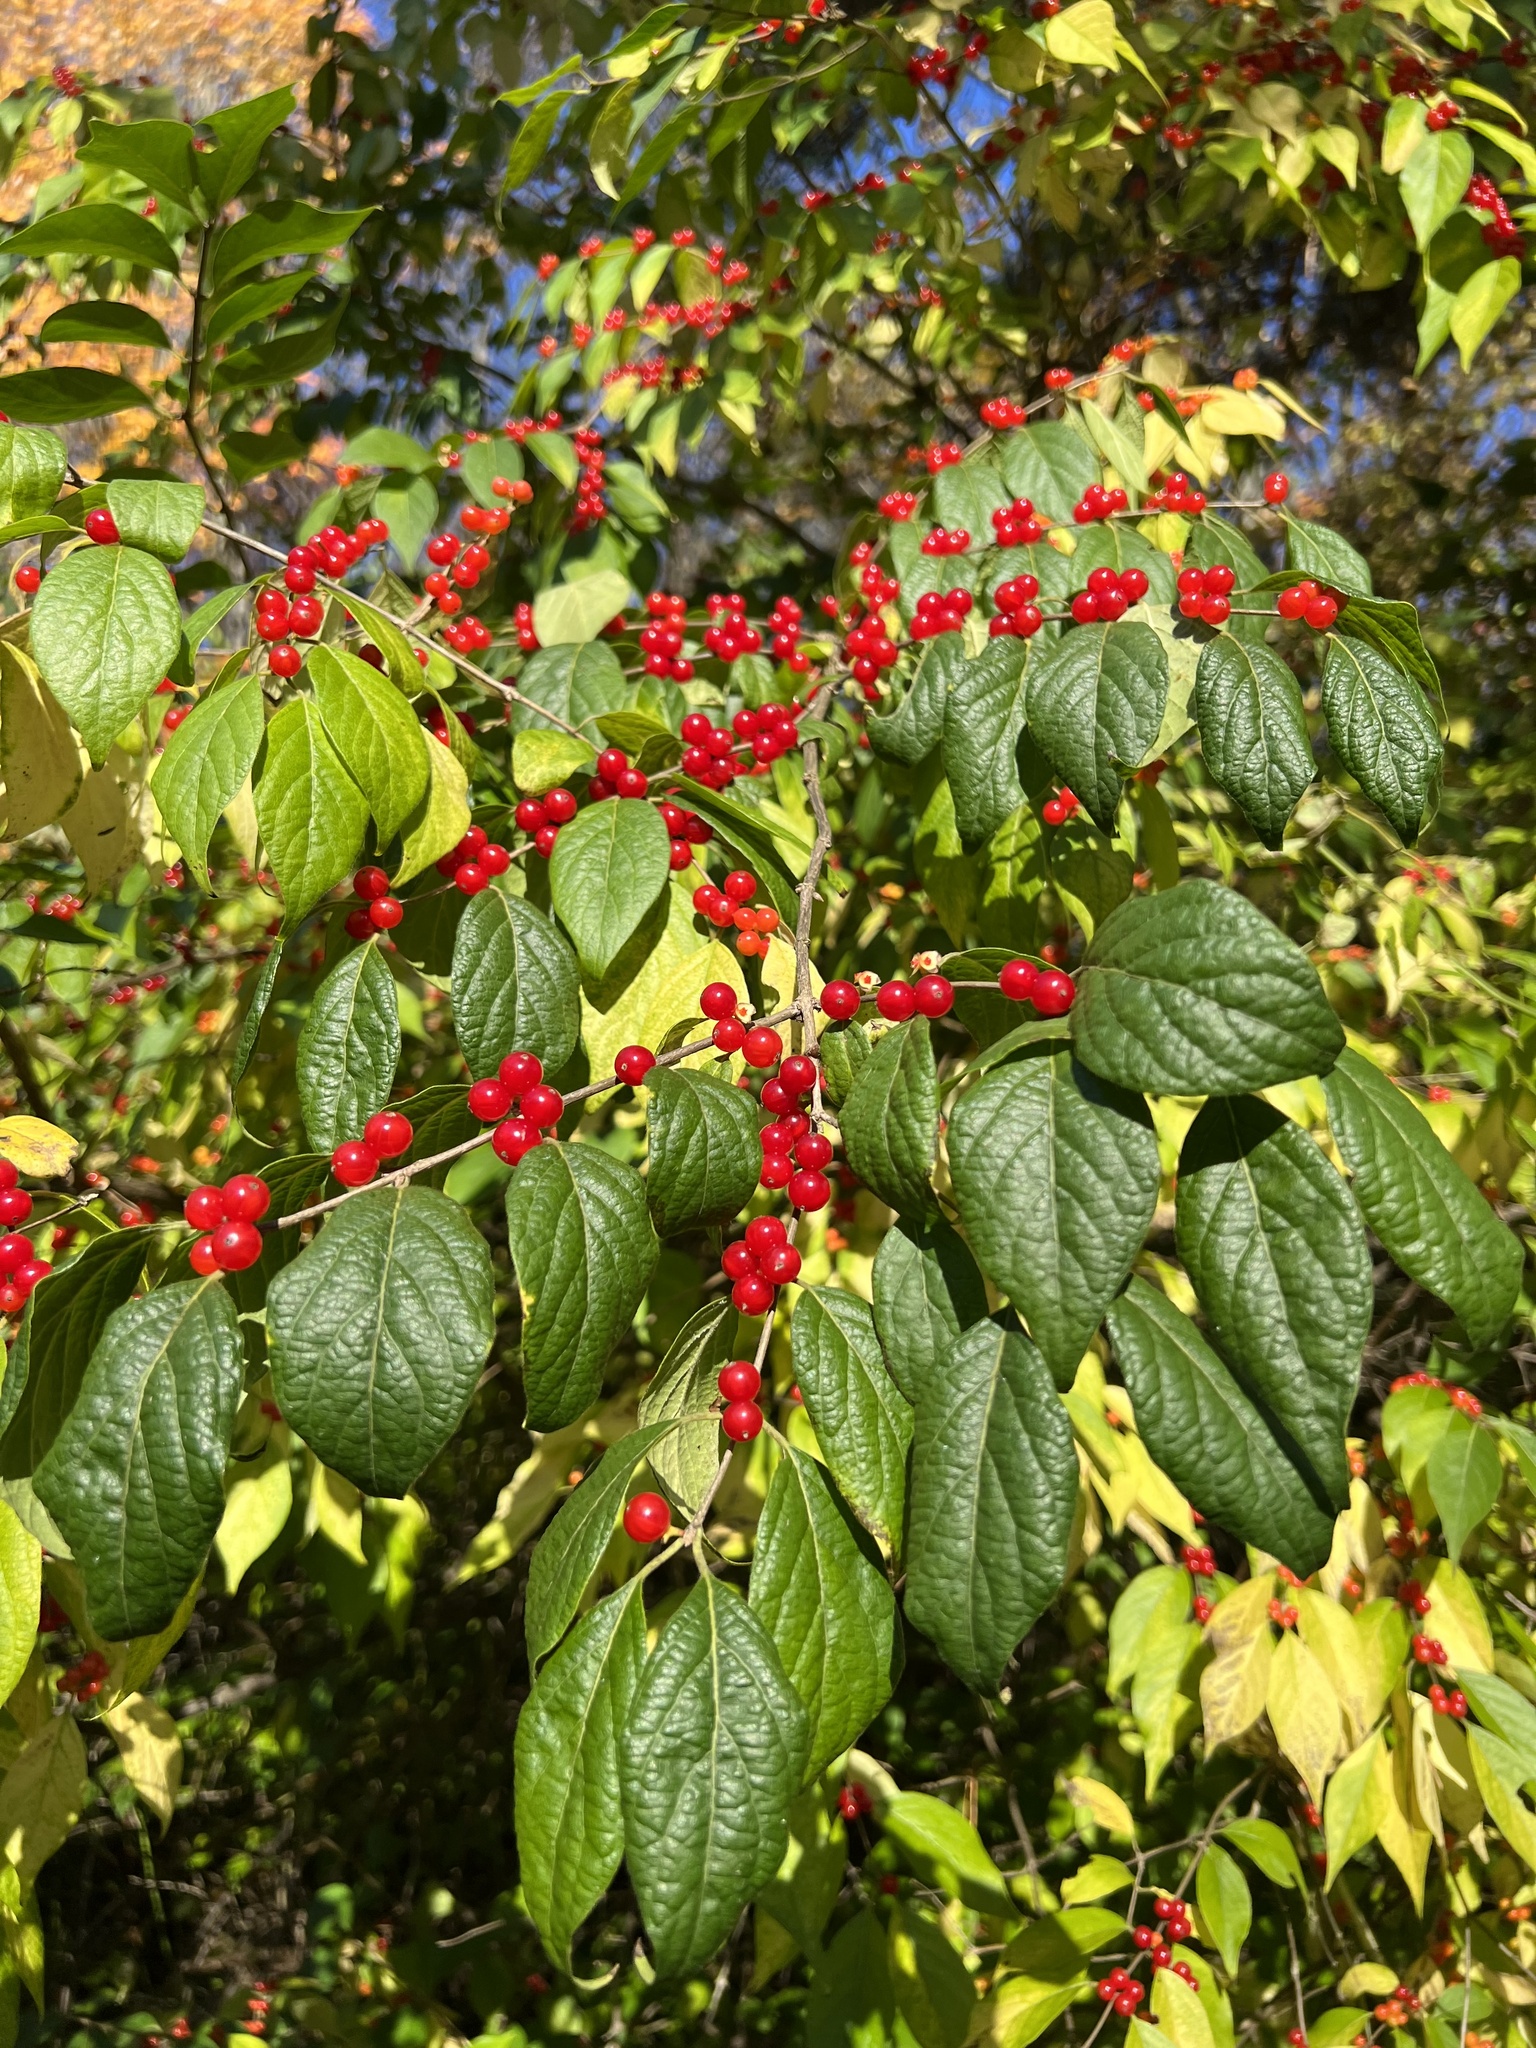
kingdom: Plantae
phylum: Tracheophyta
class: Magnoliopsida
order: Dipsacales
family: Caprifoliaceae
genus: Lonicera
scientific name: Lonicera maackii
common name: Amur honeysuckle
